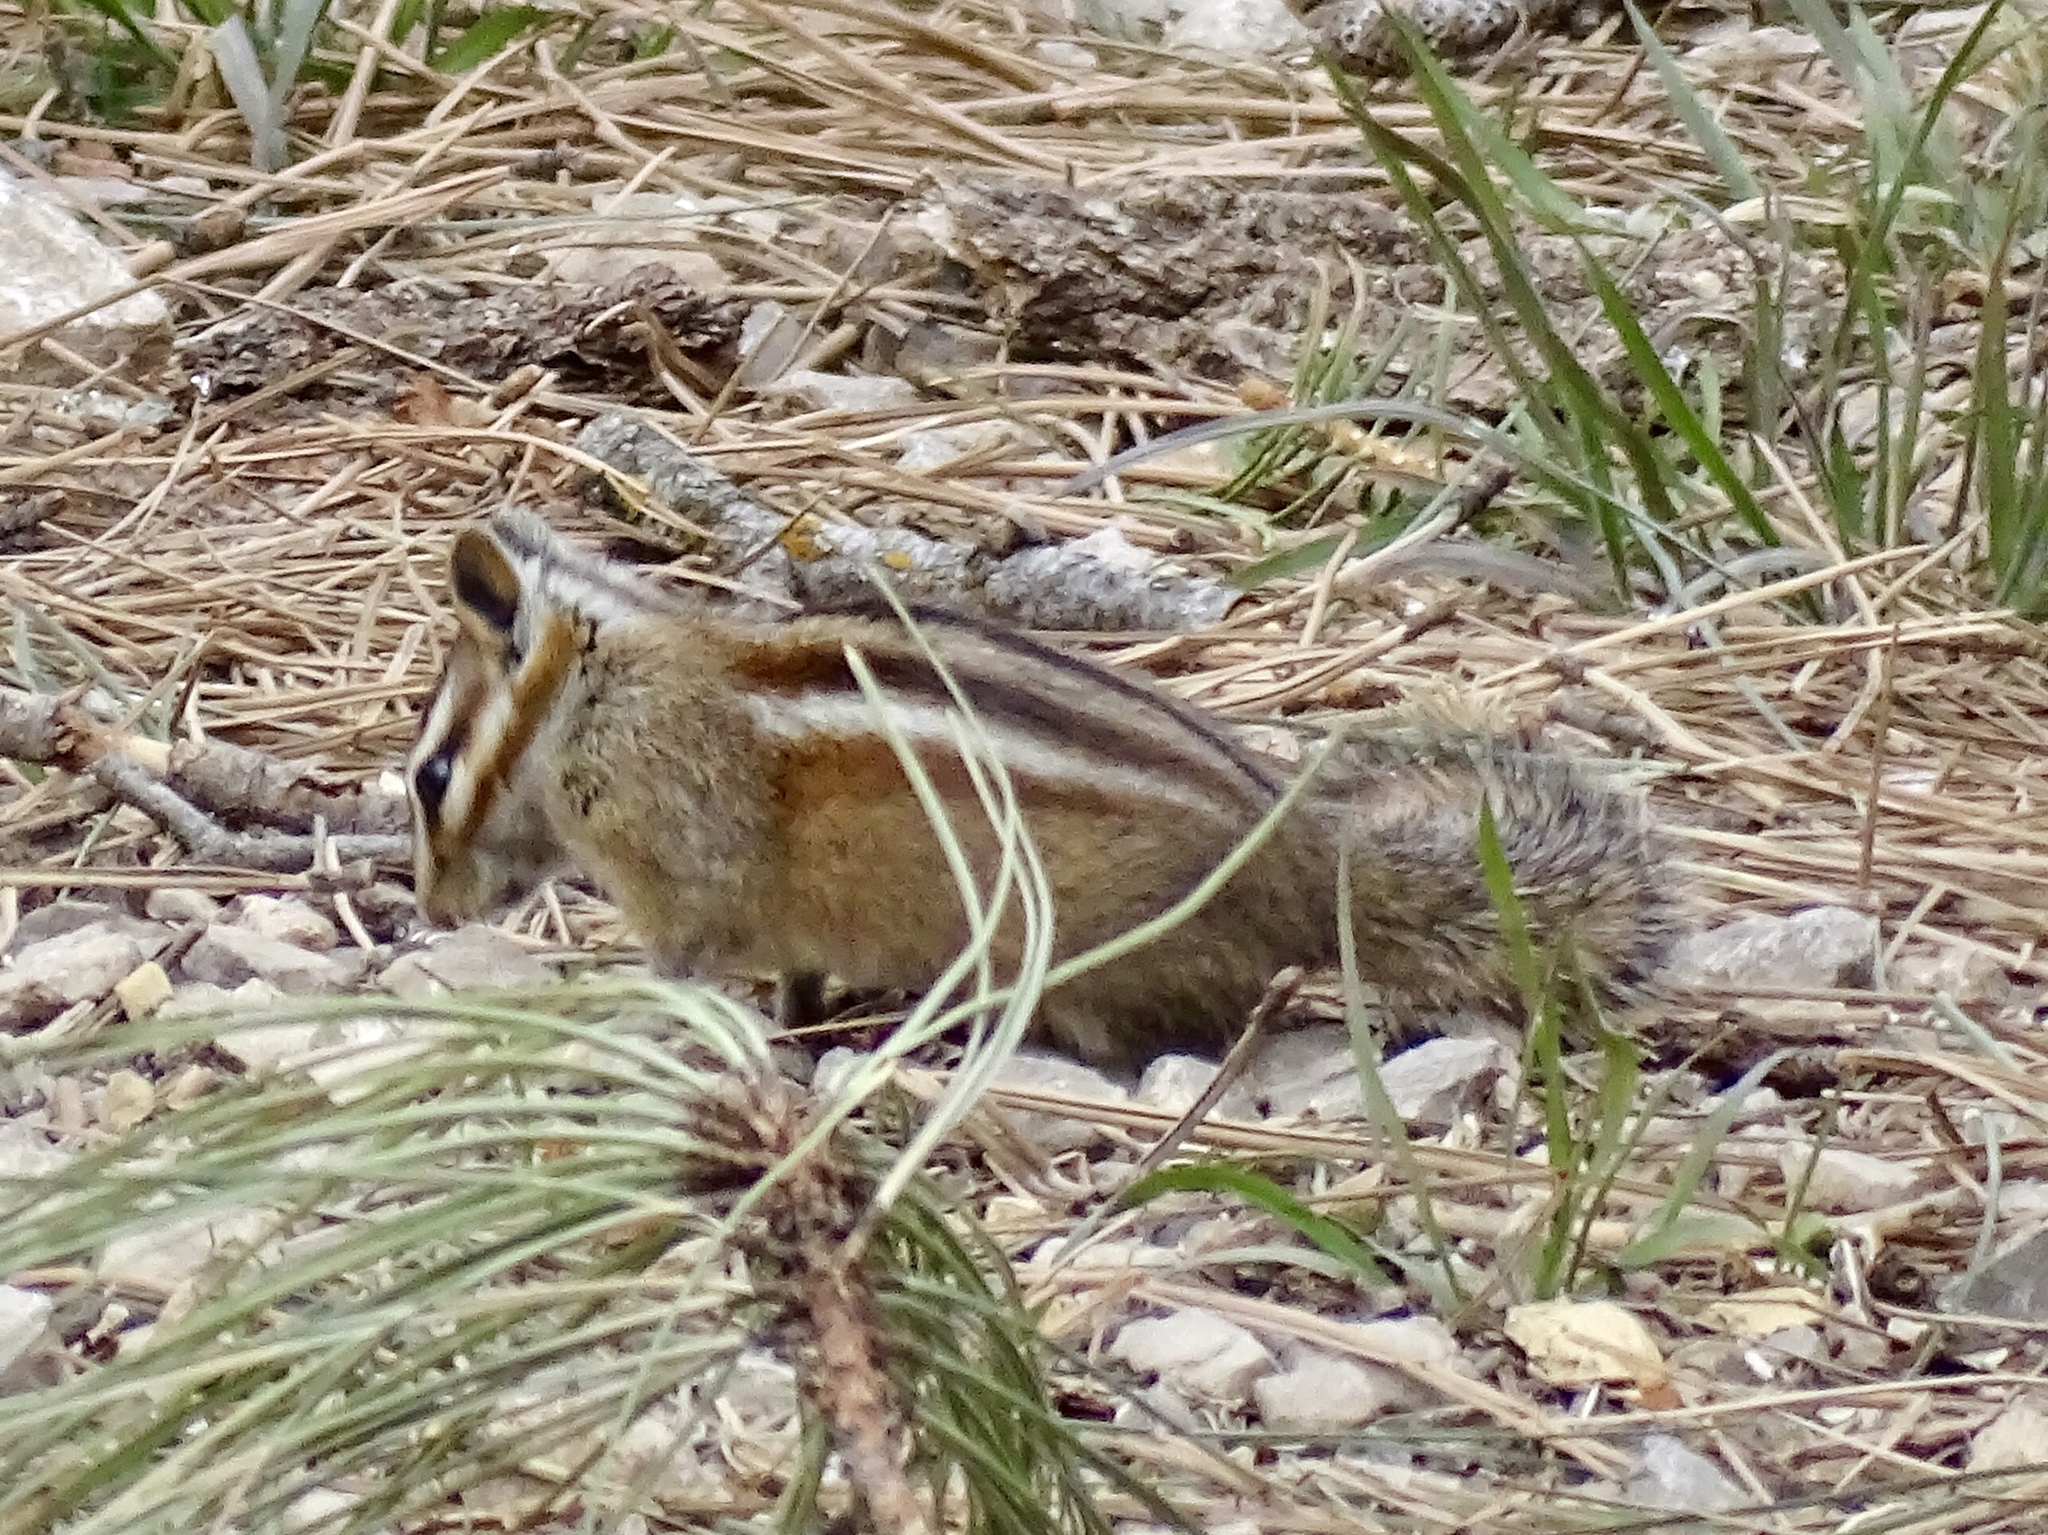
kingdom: Animalia
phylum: Chordata
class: Mammalia
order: Rodentia
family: Sciuridae
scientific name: Sciuridae
